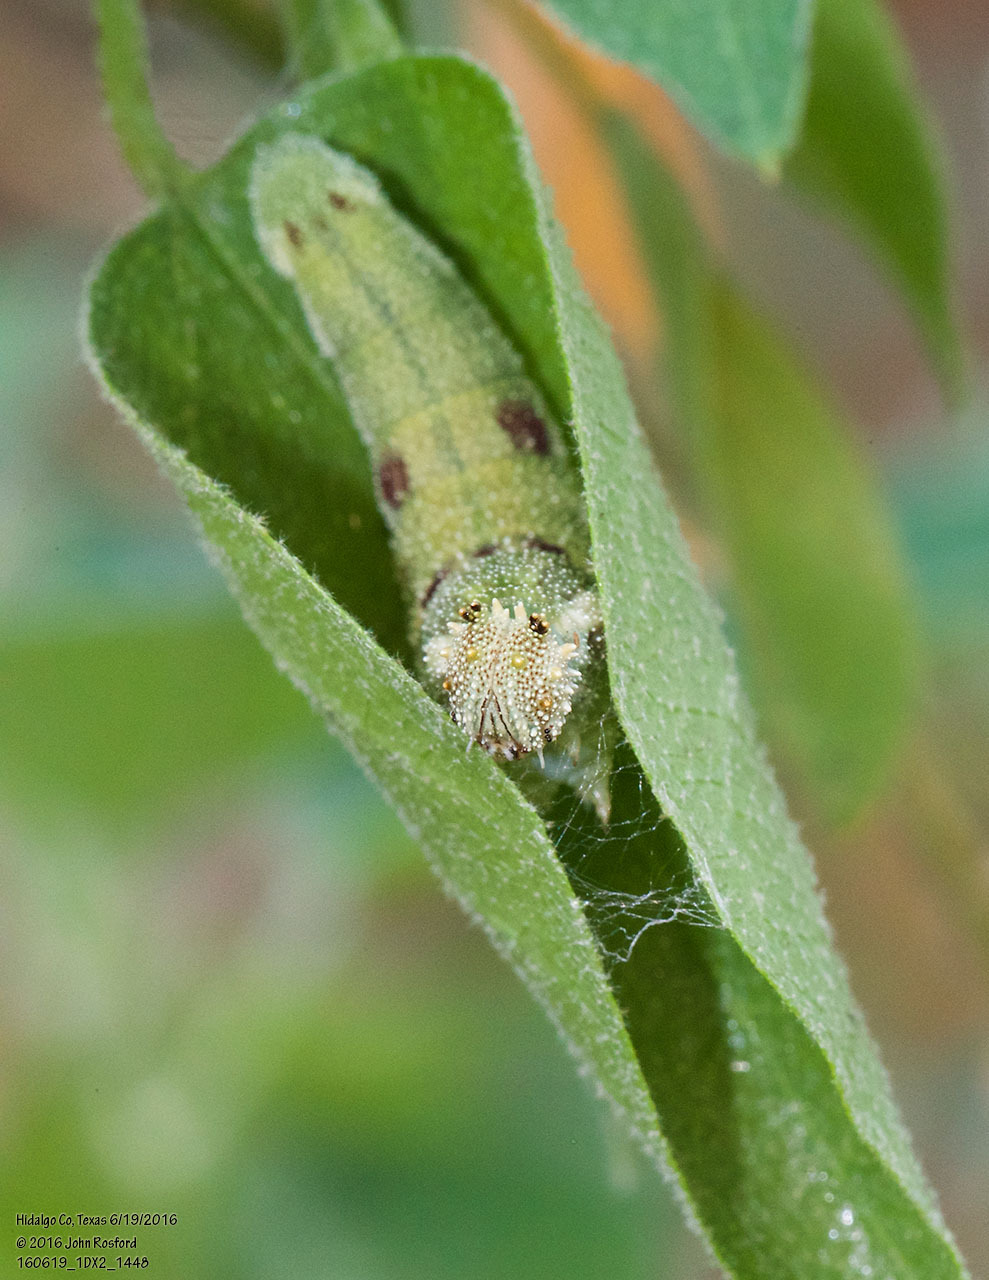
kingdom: Animalia
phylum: Arthropoda
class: Insecta
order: Lepidoptera
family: Nymphalidae
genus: Anaea
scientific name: Anaea aidea
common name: Tropical leafwing
